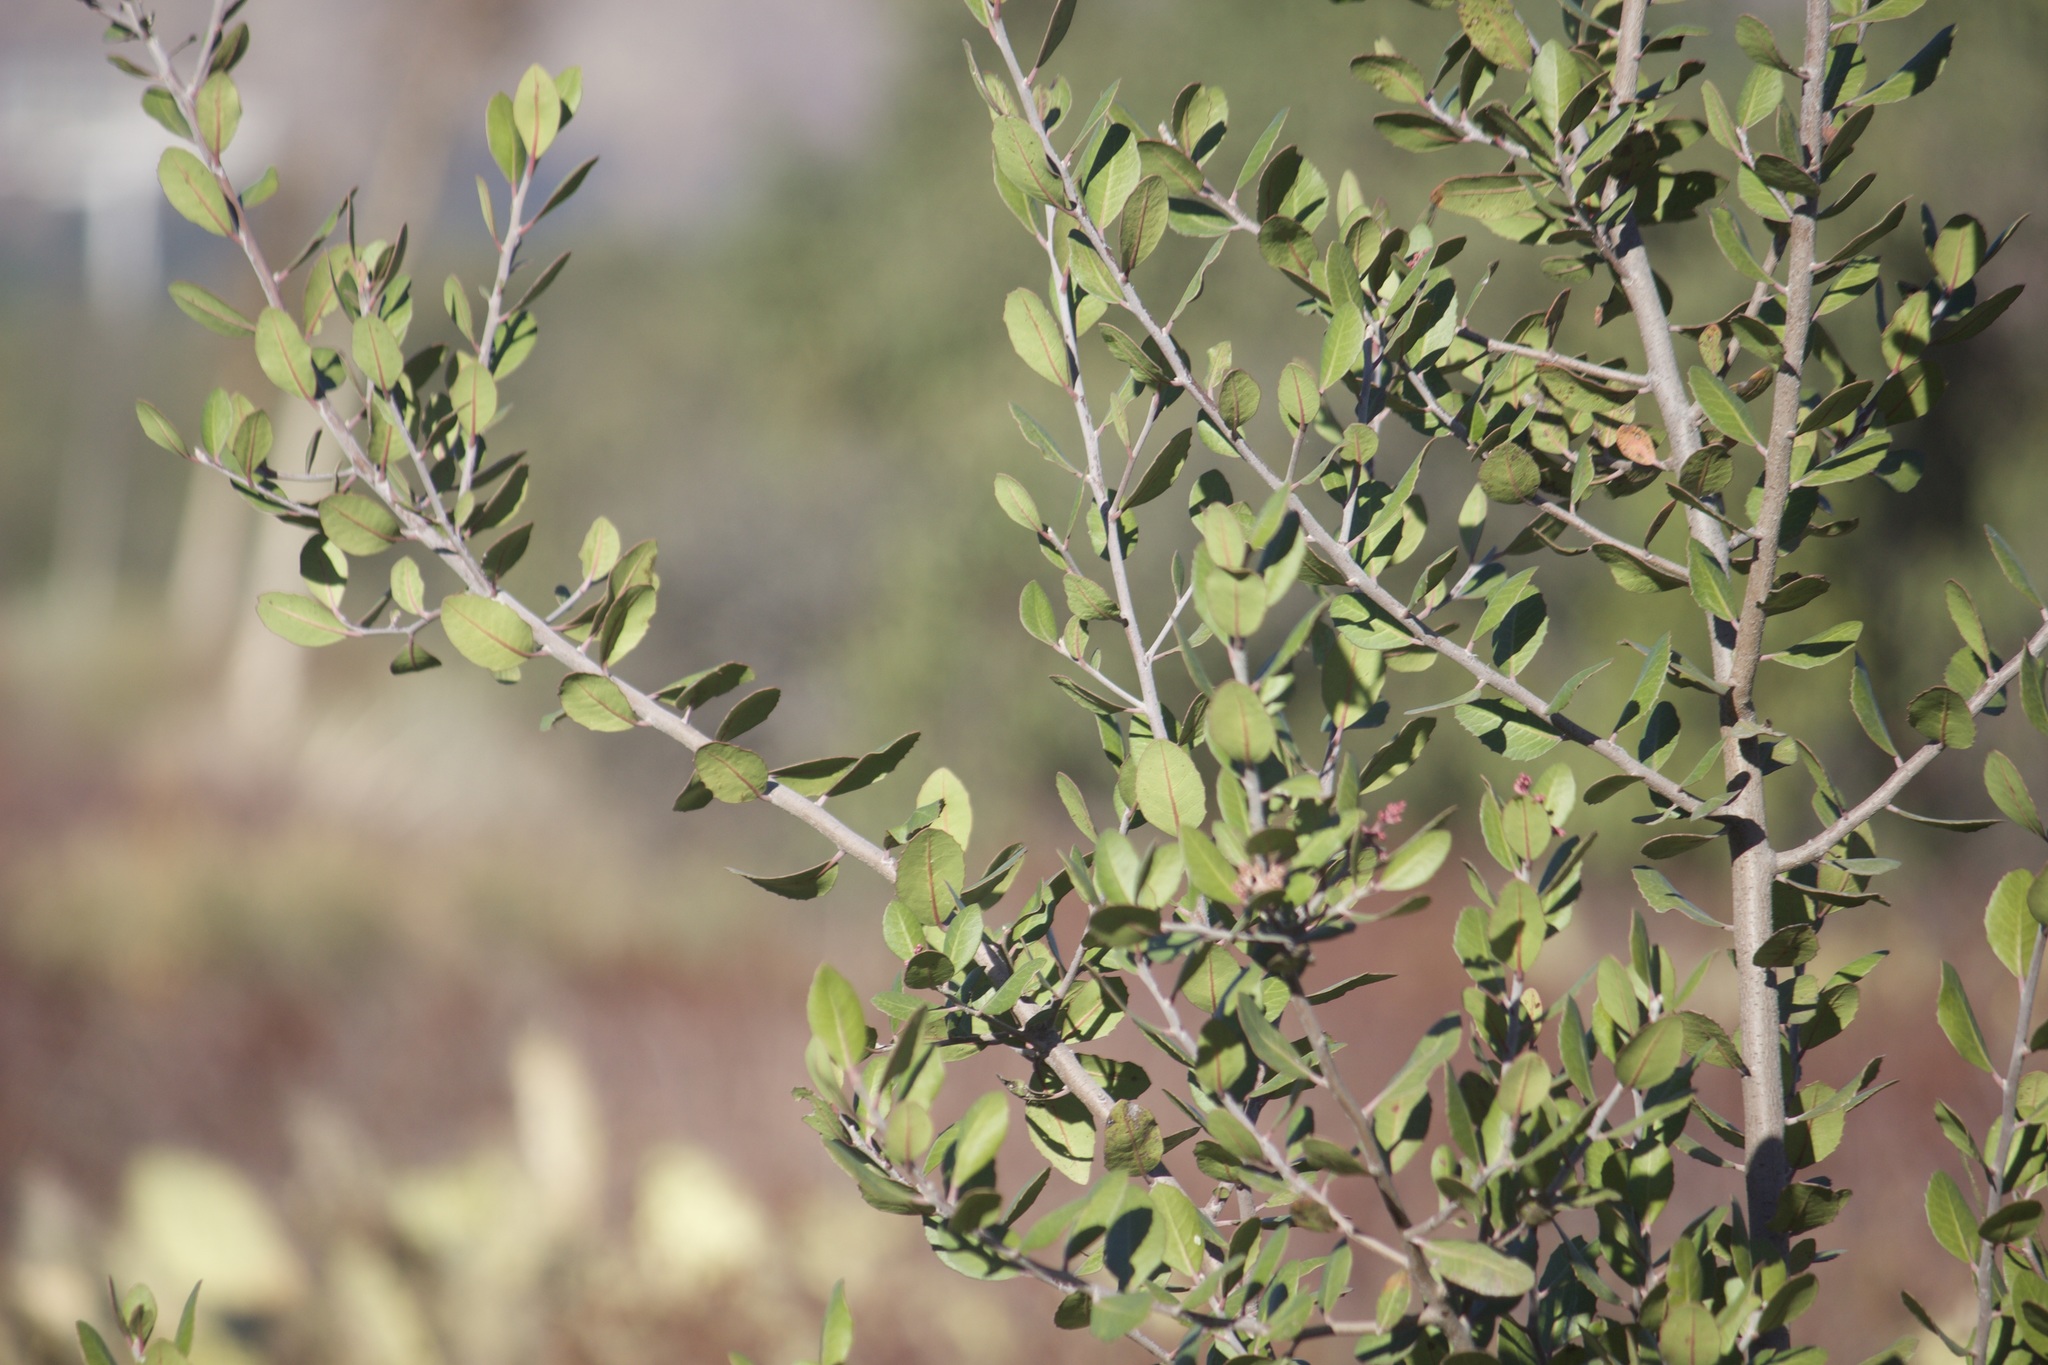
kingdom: Plantae
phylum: Tracheophyta
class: Magnoliopsida
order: Sapindales
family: Anacardiaceae
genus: Rhus
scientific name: Rhus integrifolia
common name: Lemonade sumac
